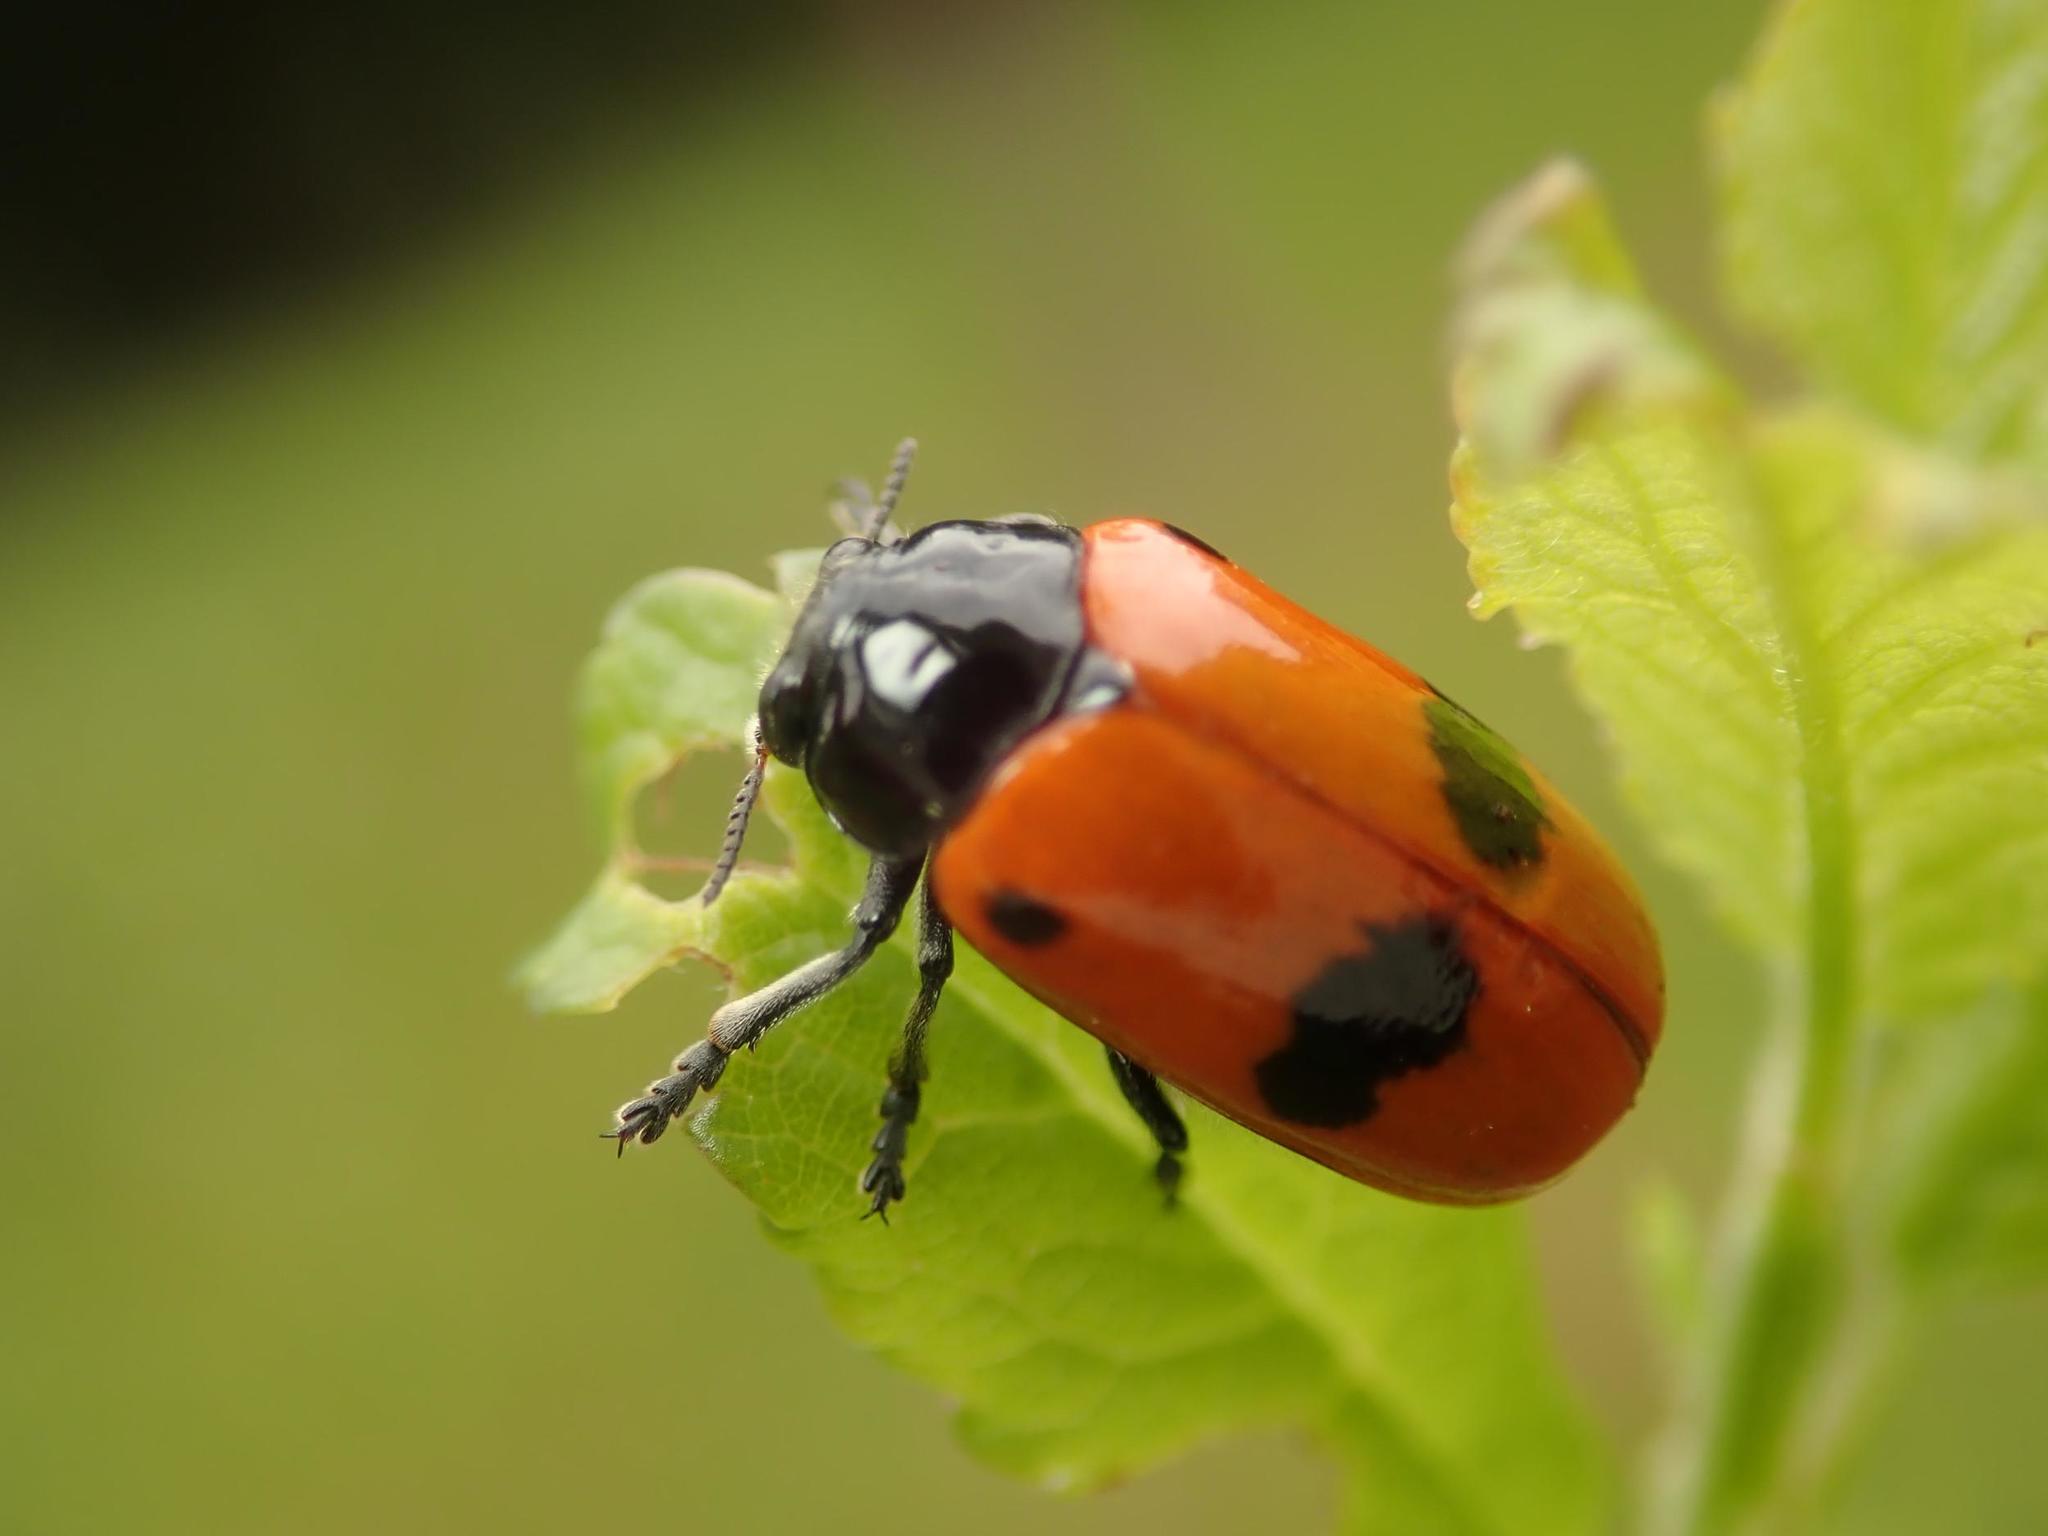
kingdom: Animalia
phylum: Arthropoda
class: Insecta
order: Coleoptera
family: Chrysomelidae
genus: Clytra
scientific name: Clytra laeviuscula
